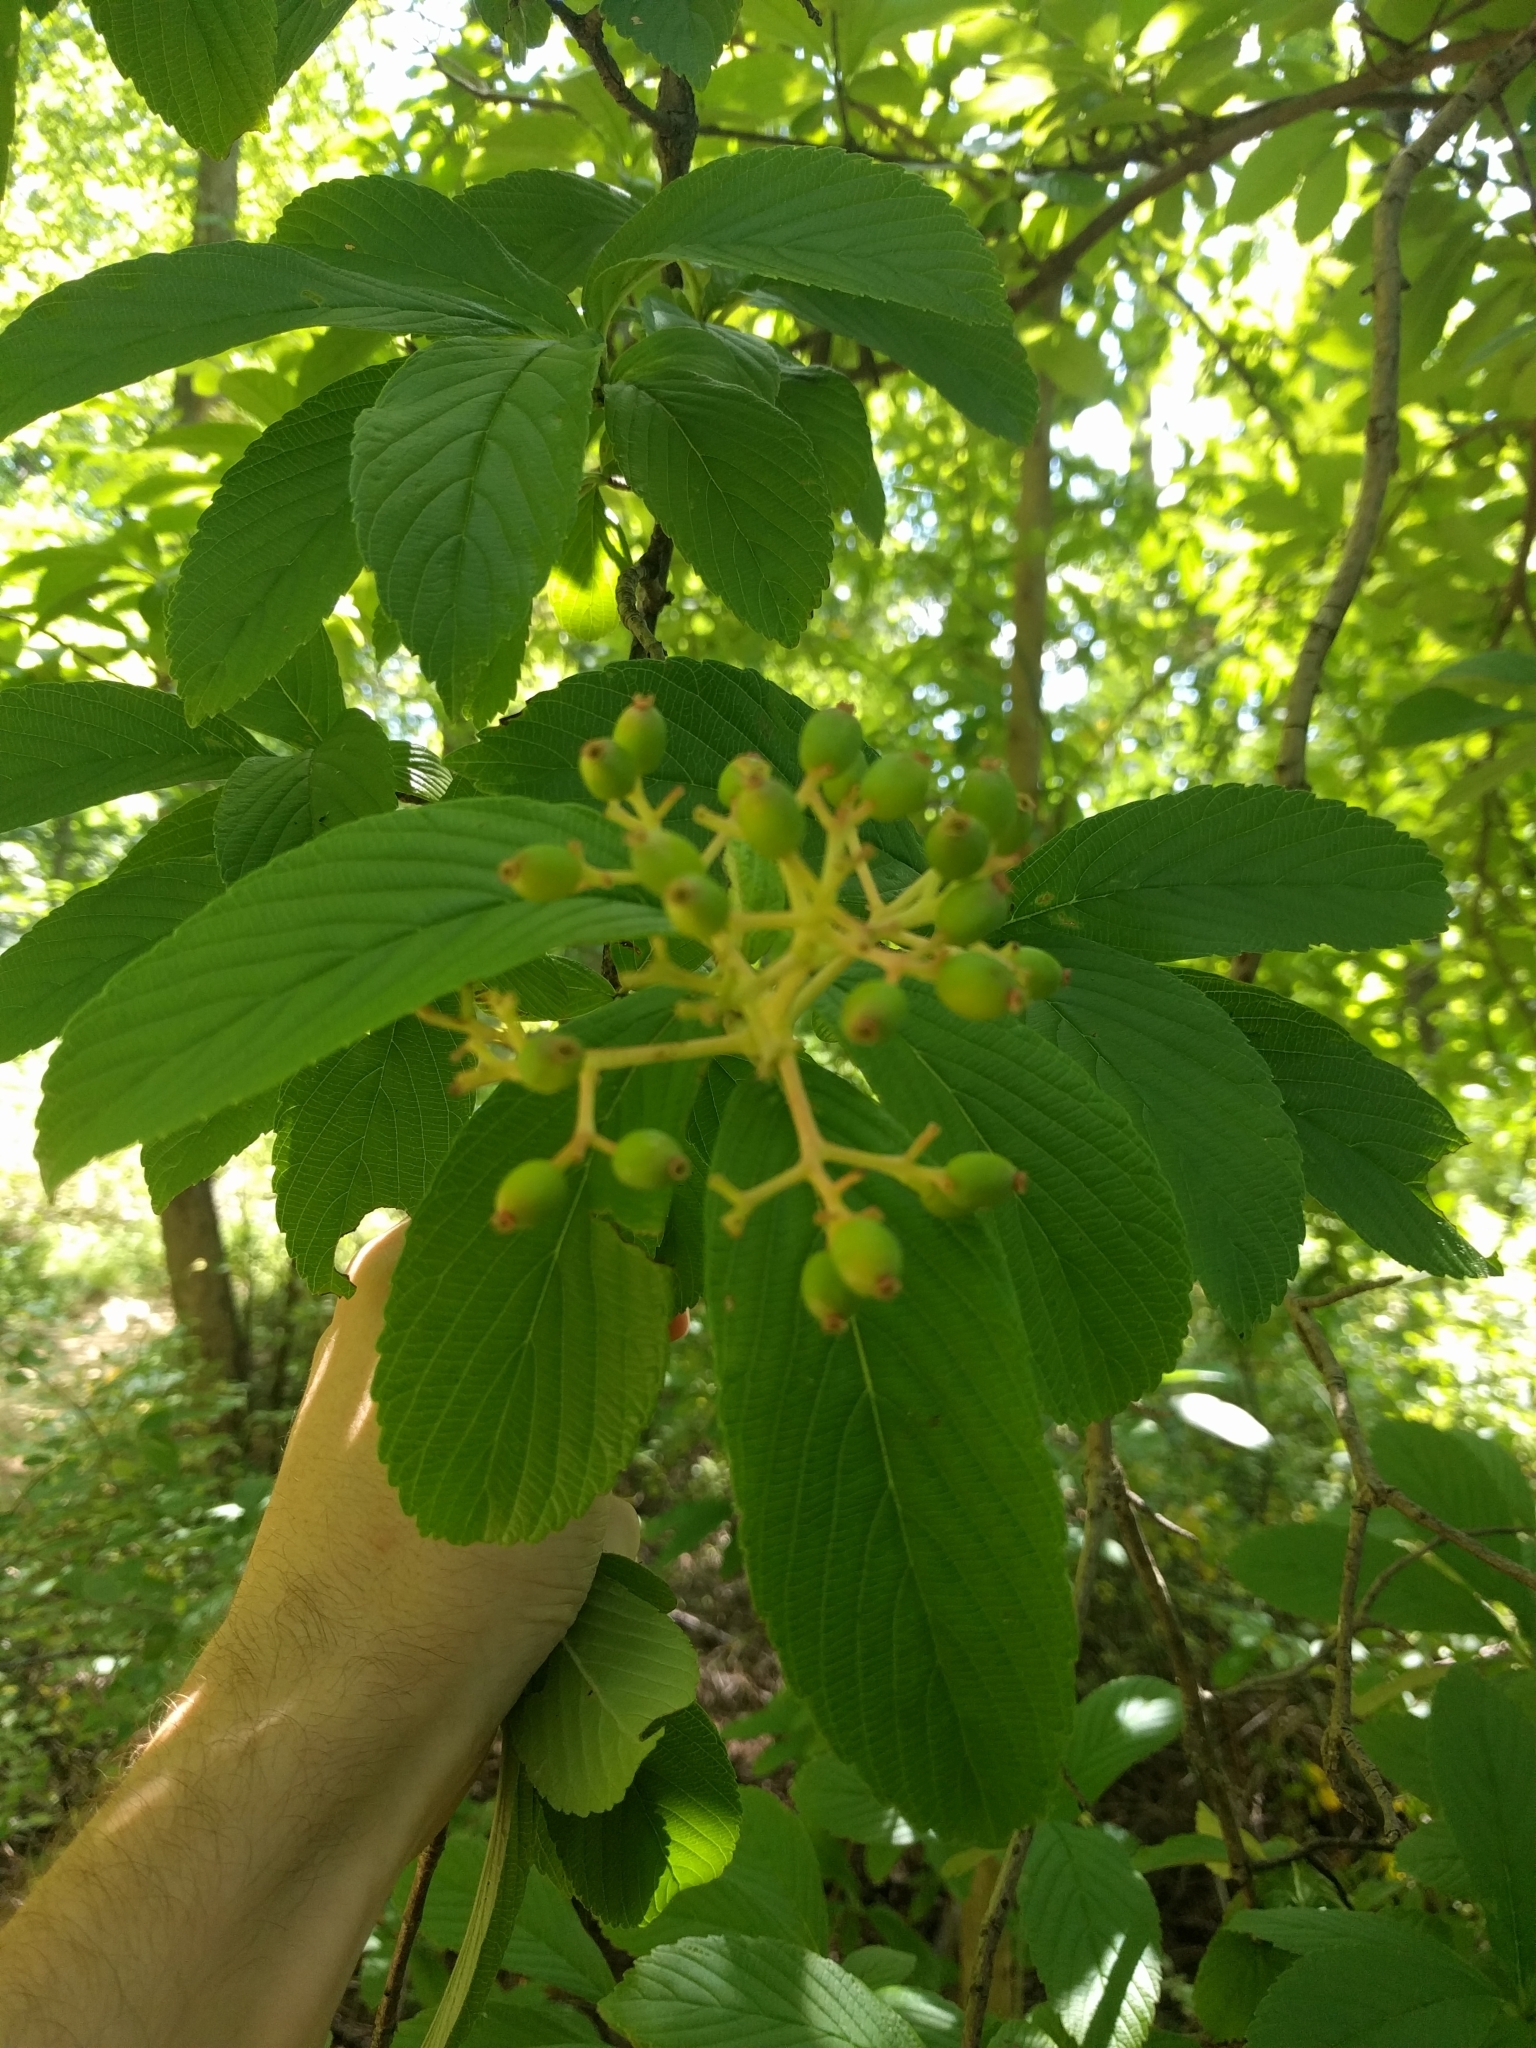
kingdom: Plantae
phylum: Tracheophyta
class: Magnoliopsida
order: Dipsacales
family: Viburnaceae
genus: Viburnum
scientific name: Viburnum sieboldii
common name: Siebold's arrowwood
